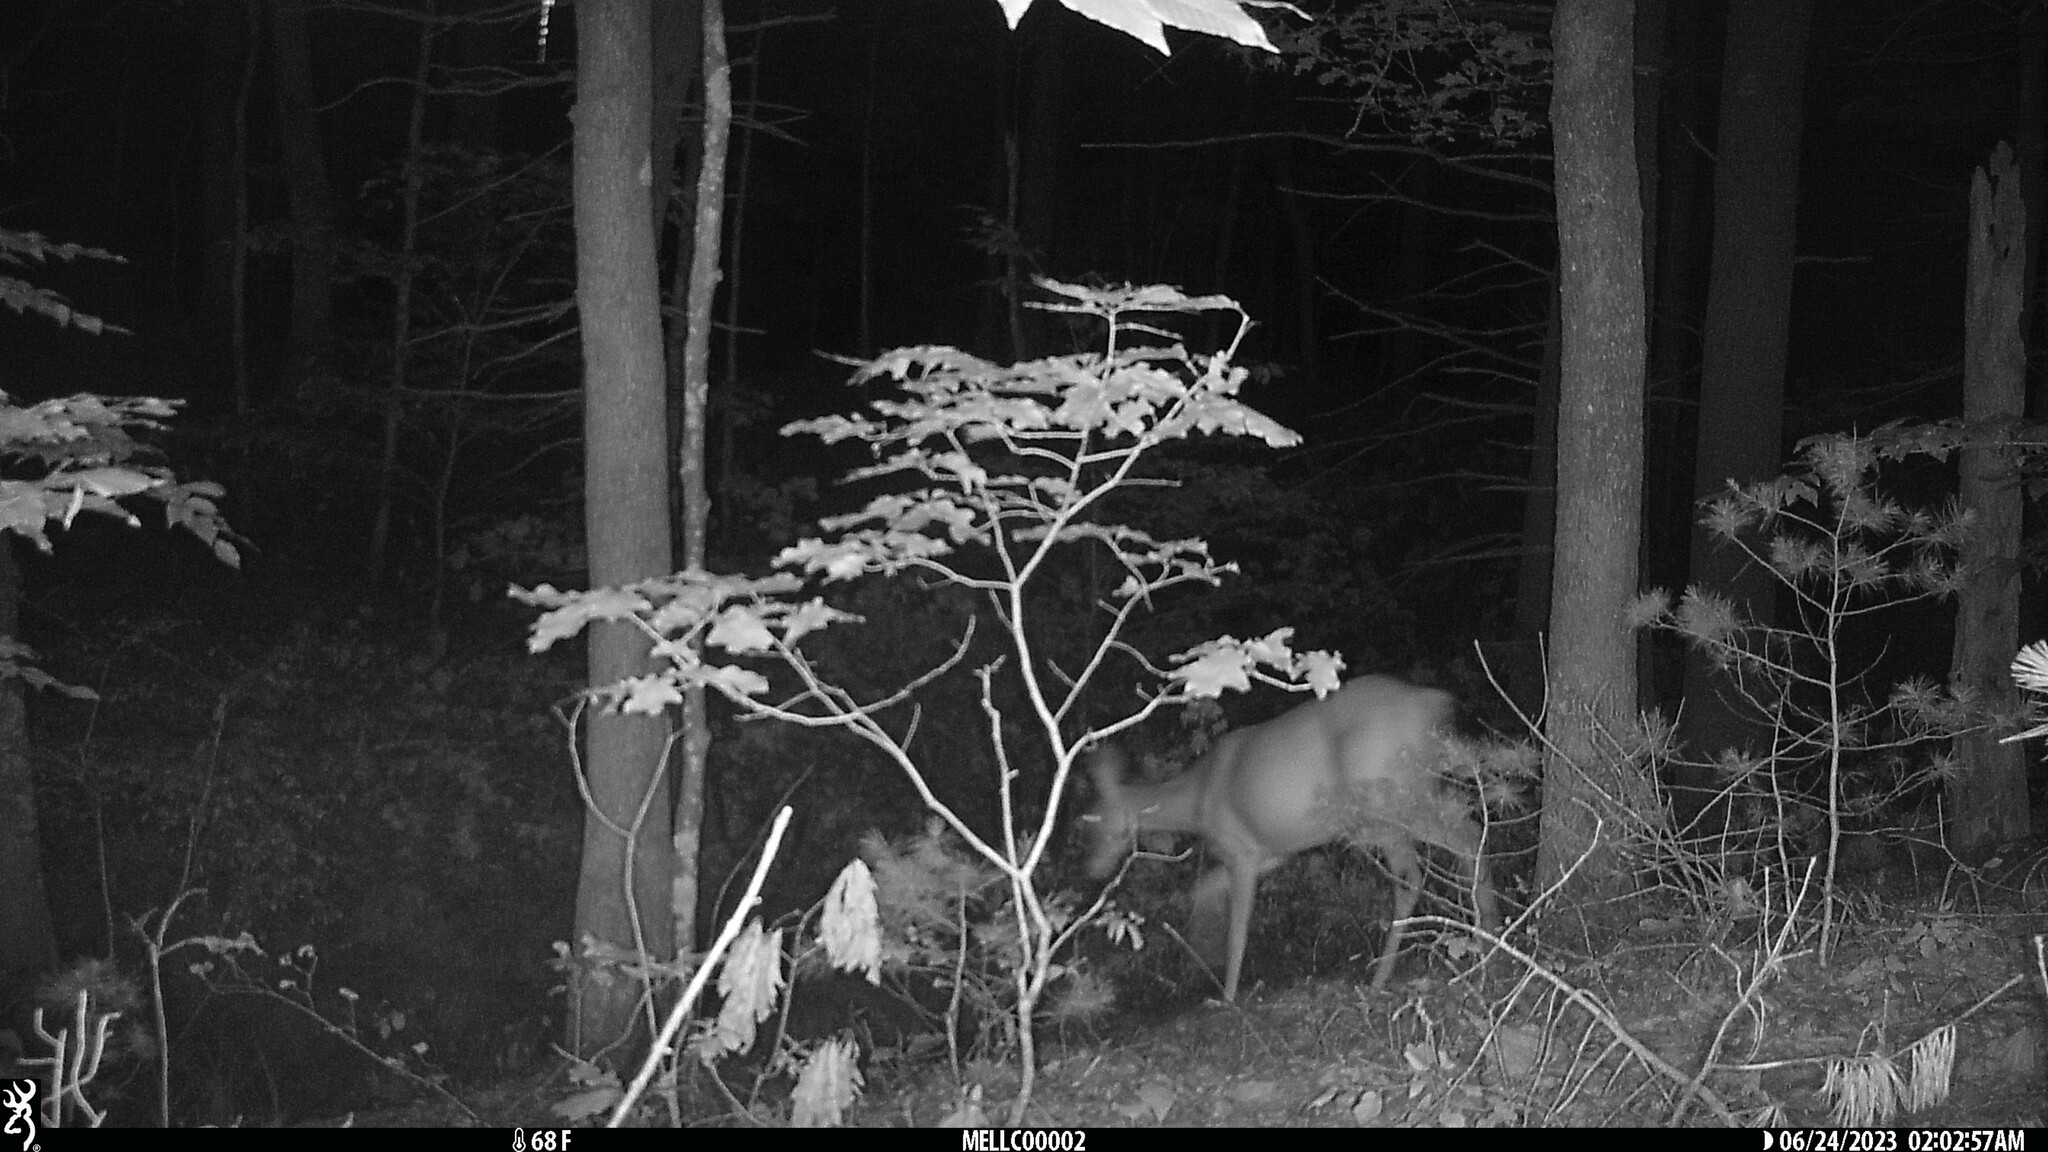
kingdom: Animalia
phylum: Chordata
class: Mammalia
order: Artiodactyla
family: Cervidae
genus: Odocoileus
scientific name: Odocoileus virginianus
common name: White-tailed deer
